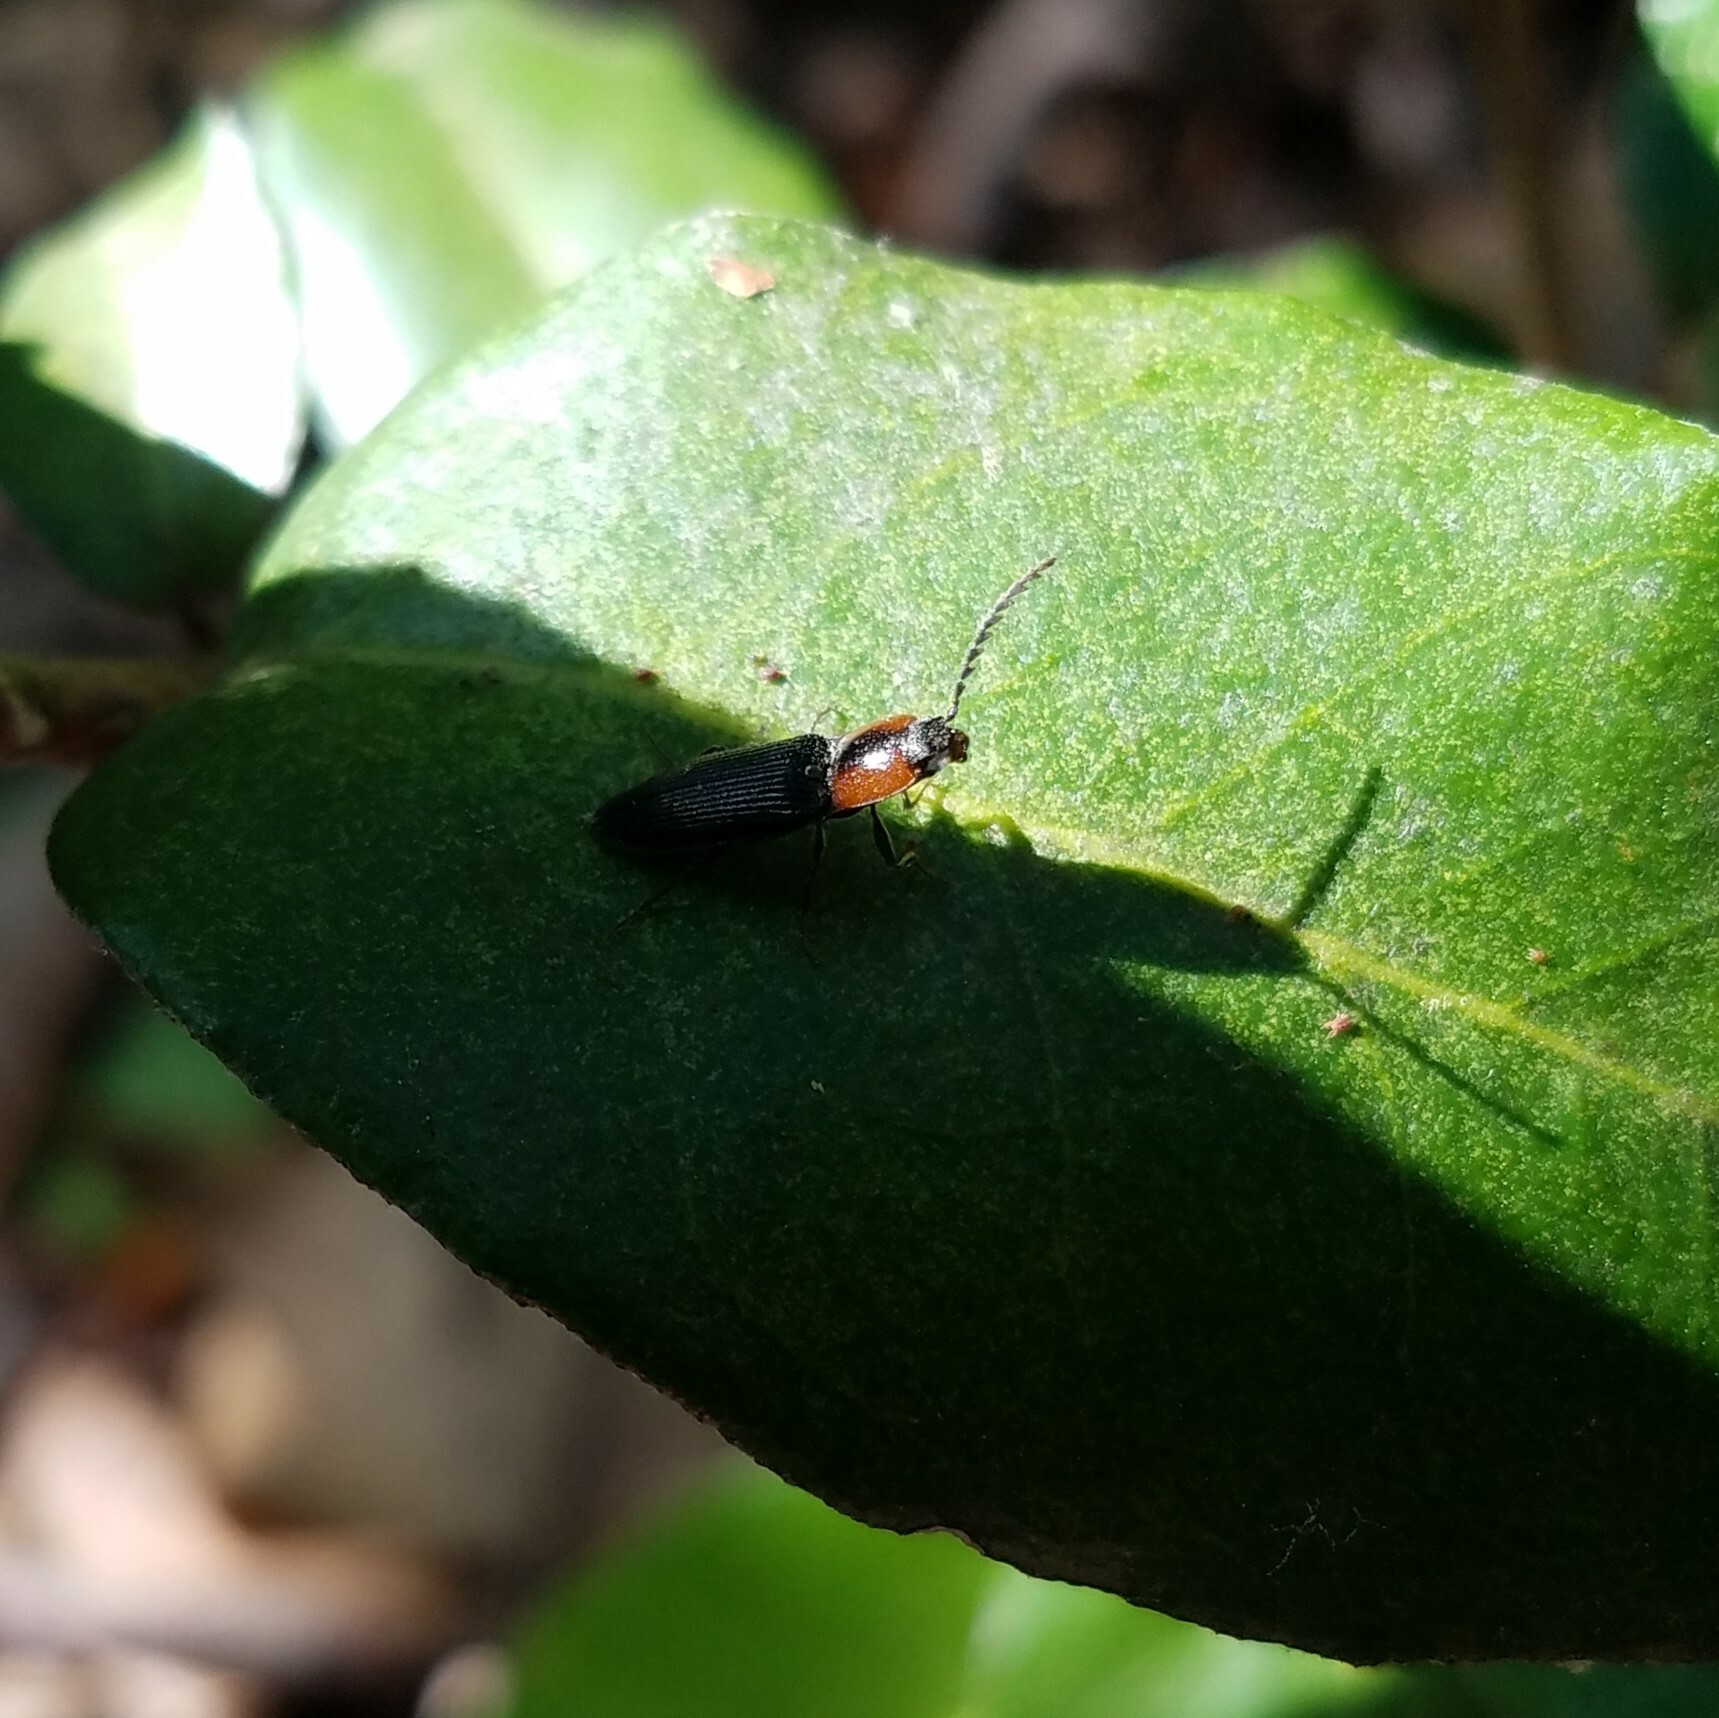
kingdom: Animalia
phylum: Arthropoda
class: Insecta
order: Coleoptera
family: Curculionidae
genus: Brownia
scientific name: Brownia
